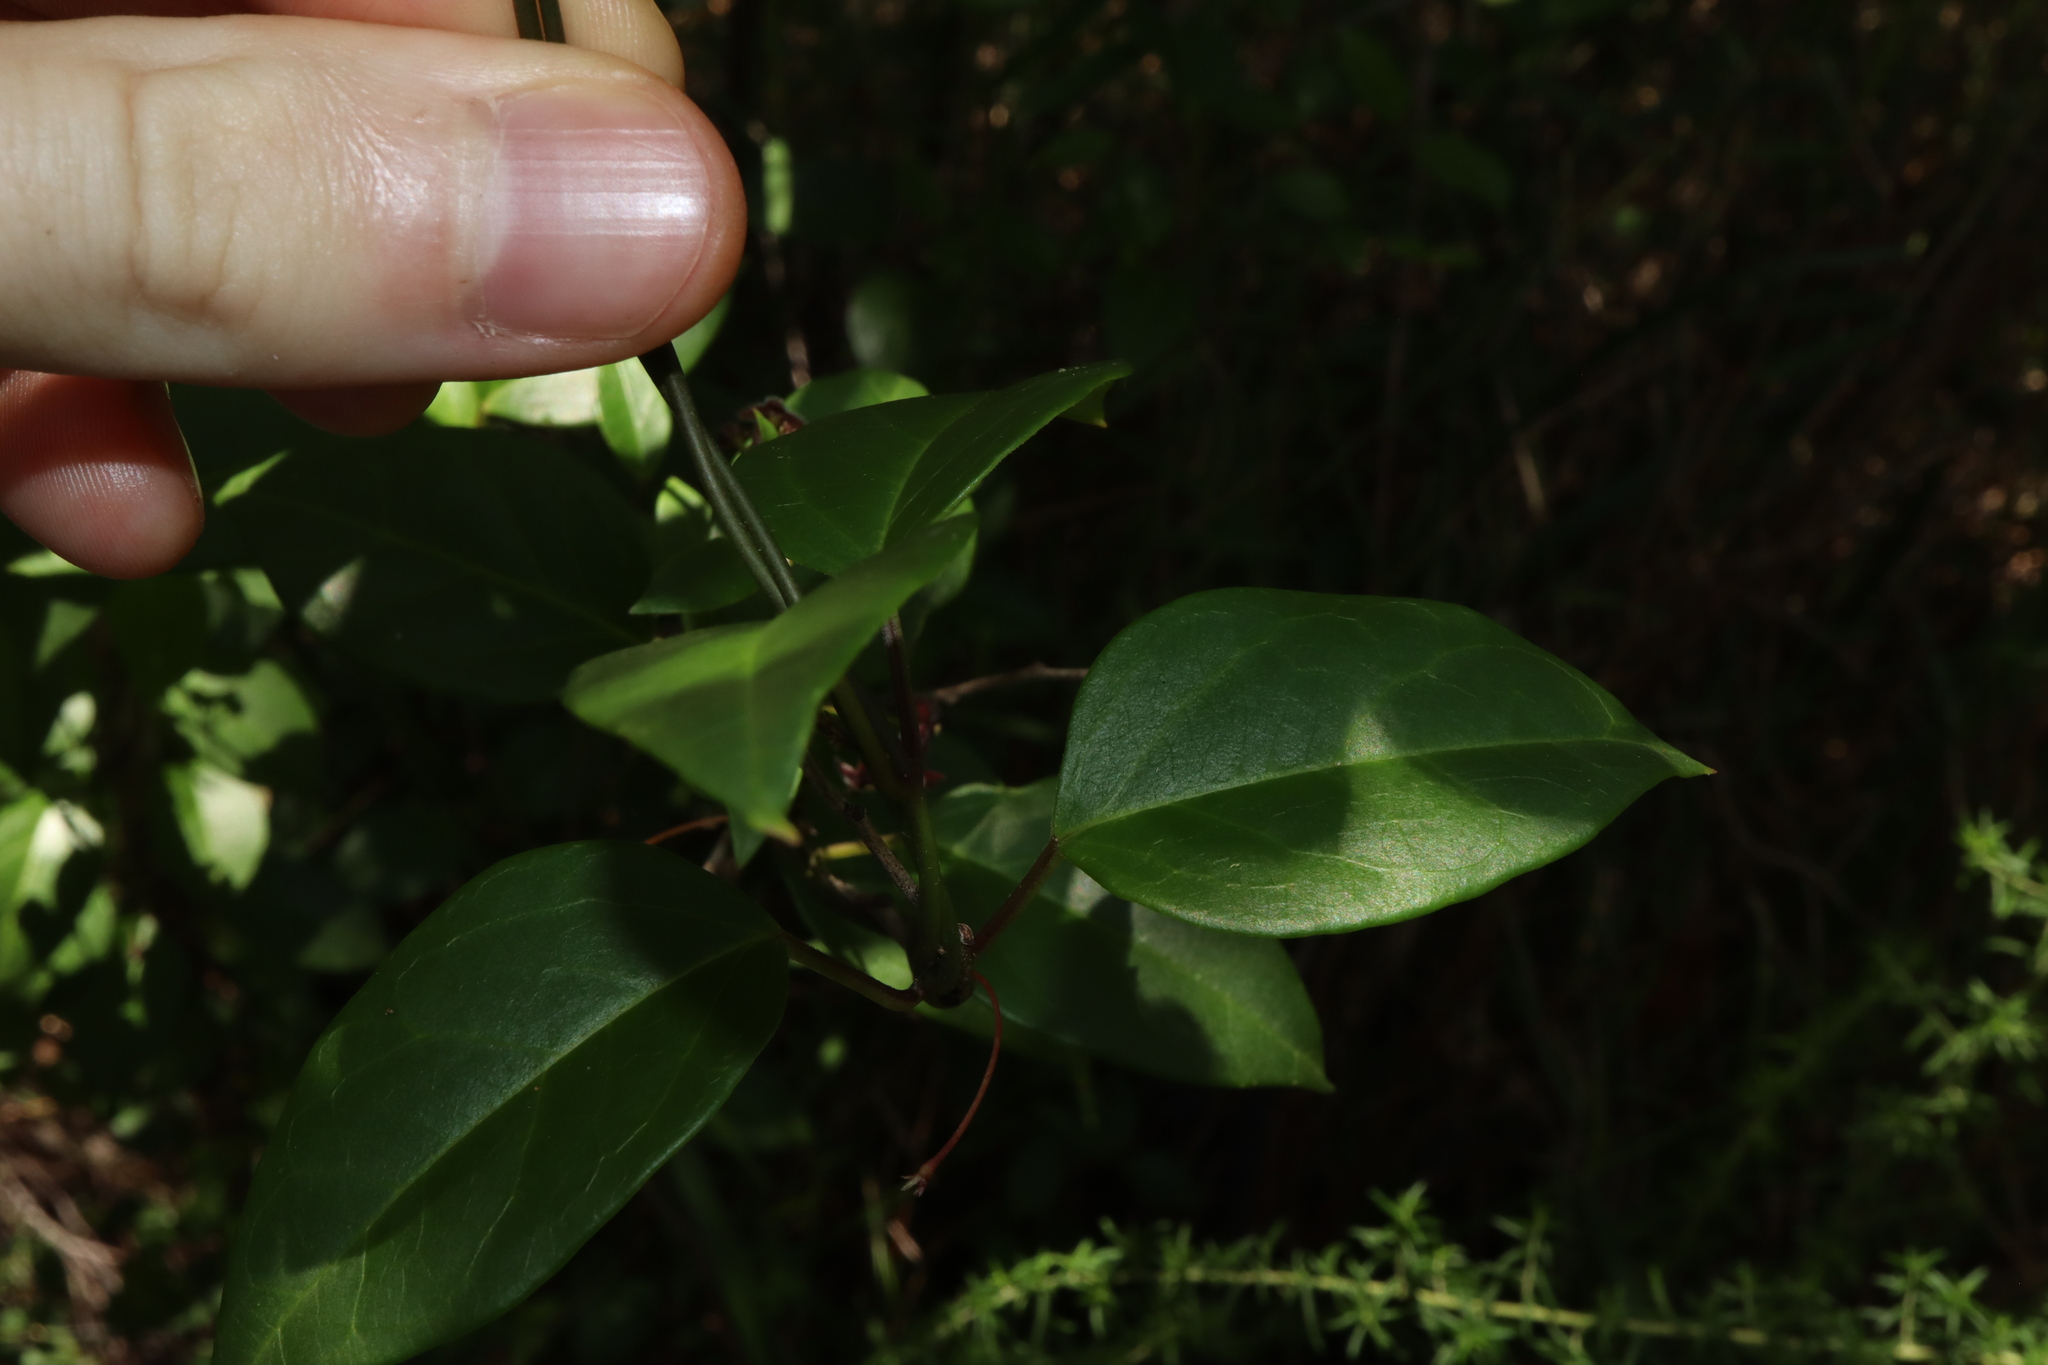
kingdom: Plantae
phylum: Tracheophyta
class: Magnoliopsida
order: Gentianales
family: Apocynaceae
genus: Vincetoxicum
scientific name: Vincetoxicum barbatum
